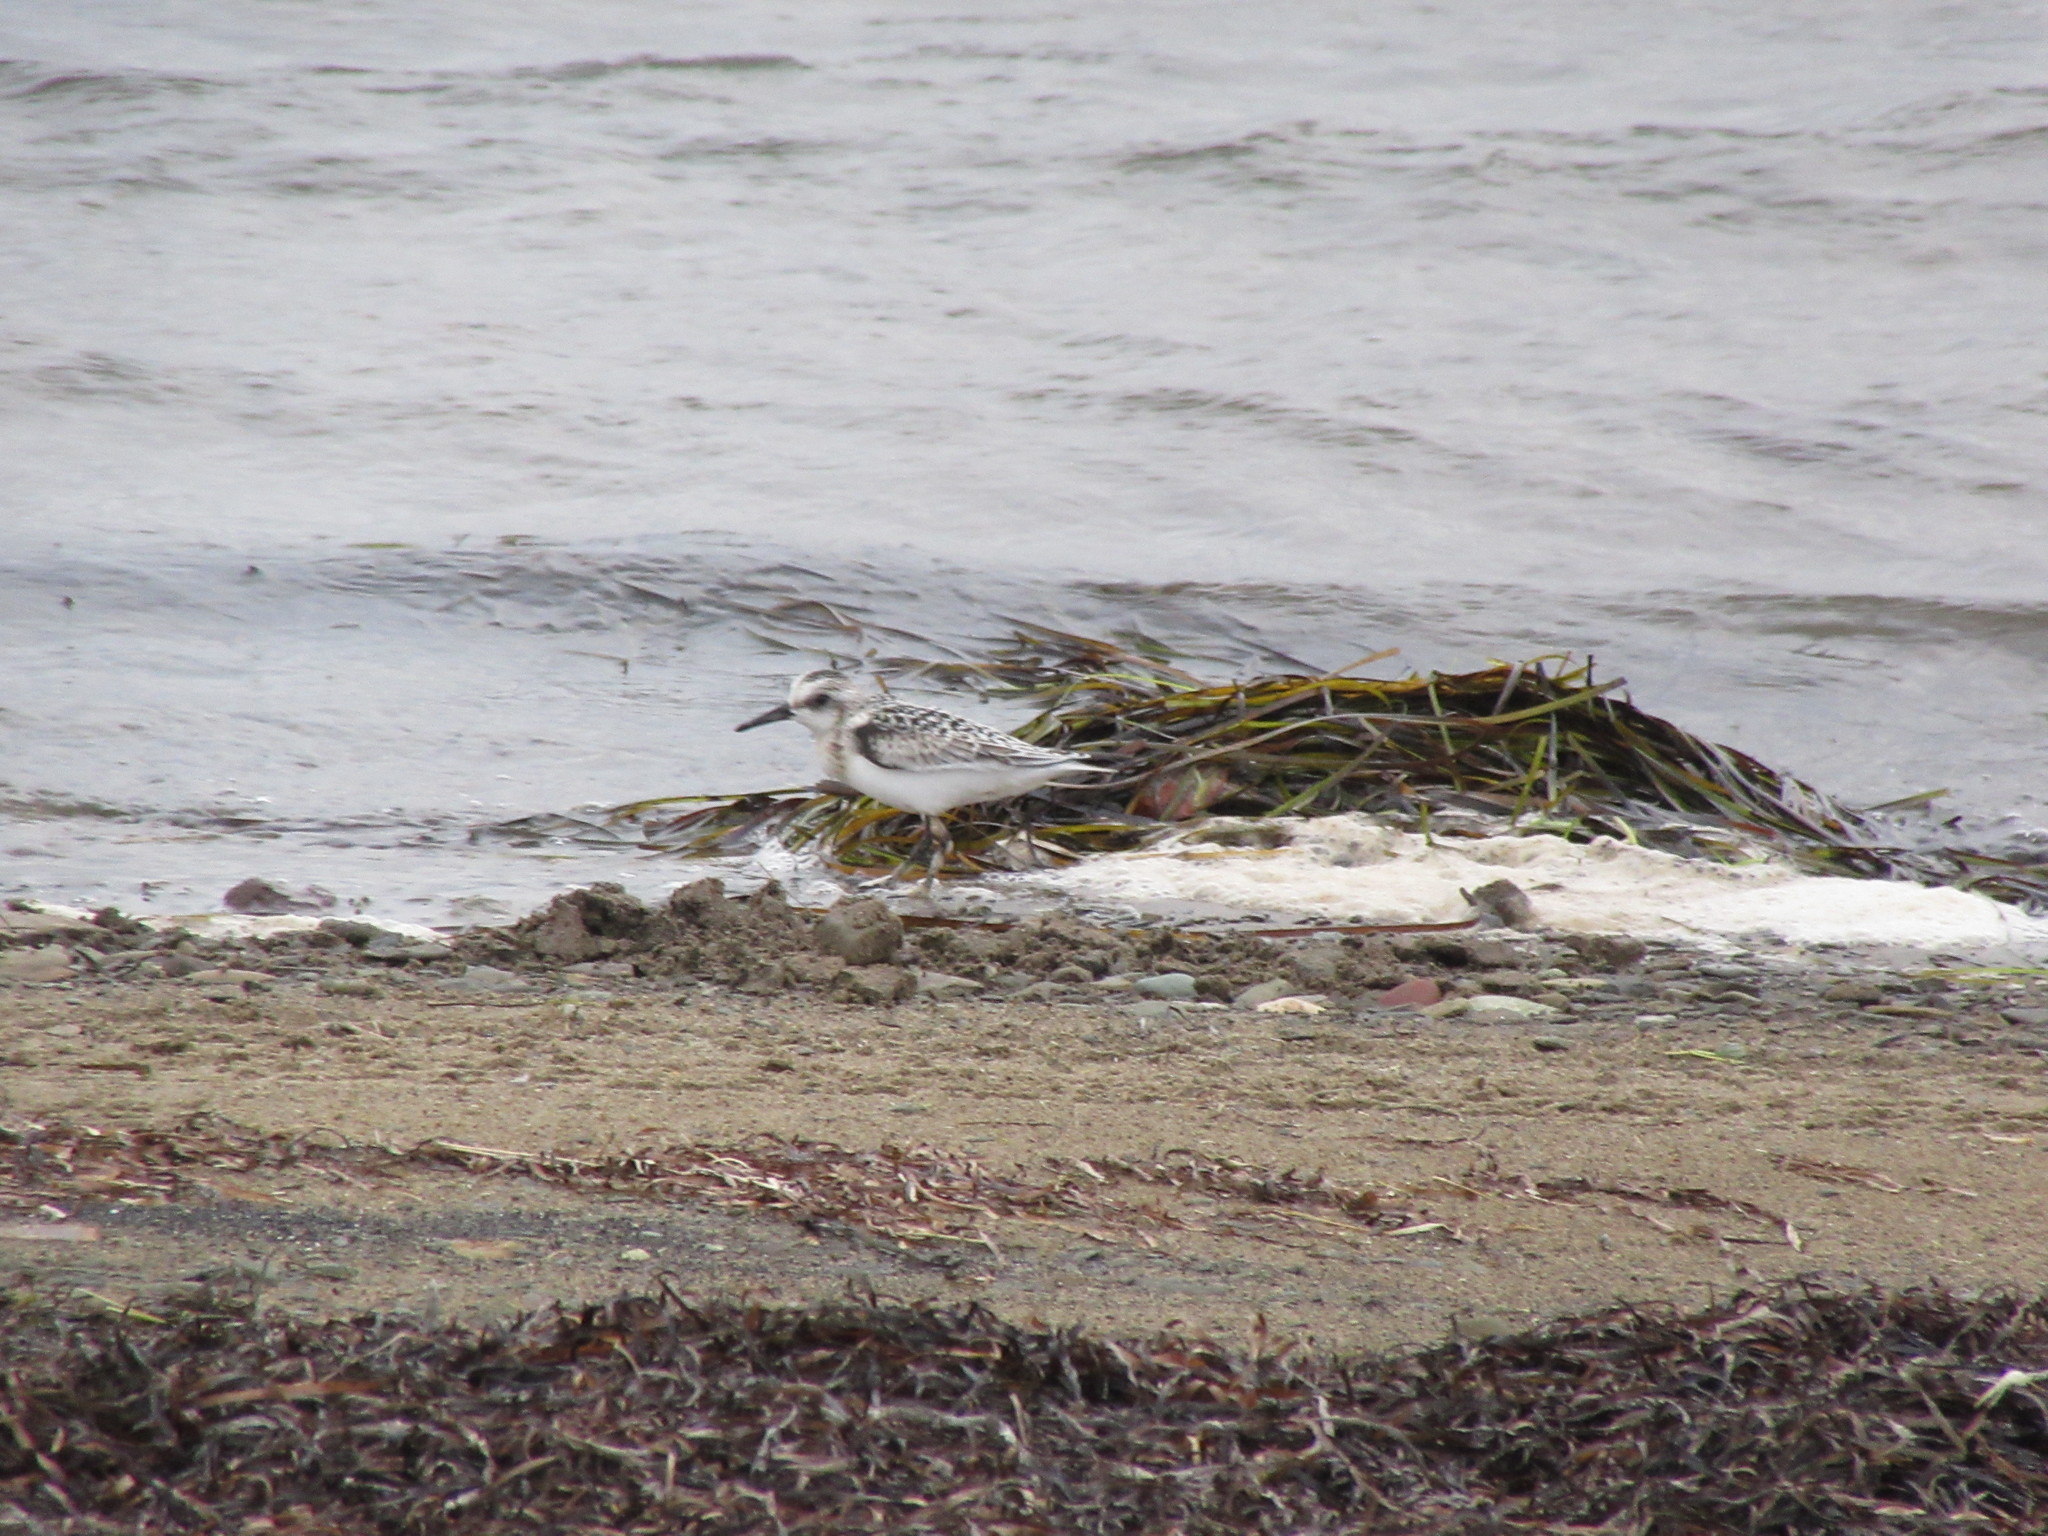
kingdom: Animalia
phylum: Chordata
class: Aves
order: Charadriiformes
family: Scolopacidae
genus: Calidris
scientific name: Calidris alba
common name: Sanderling
